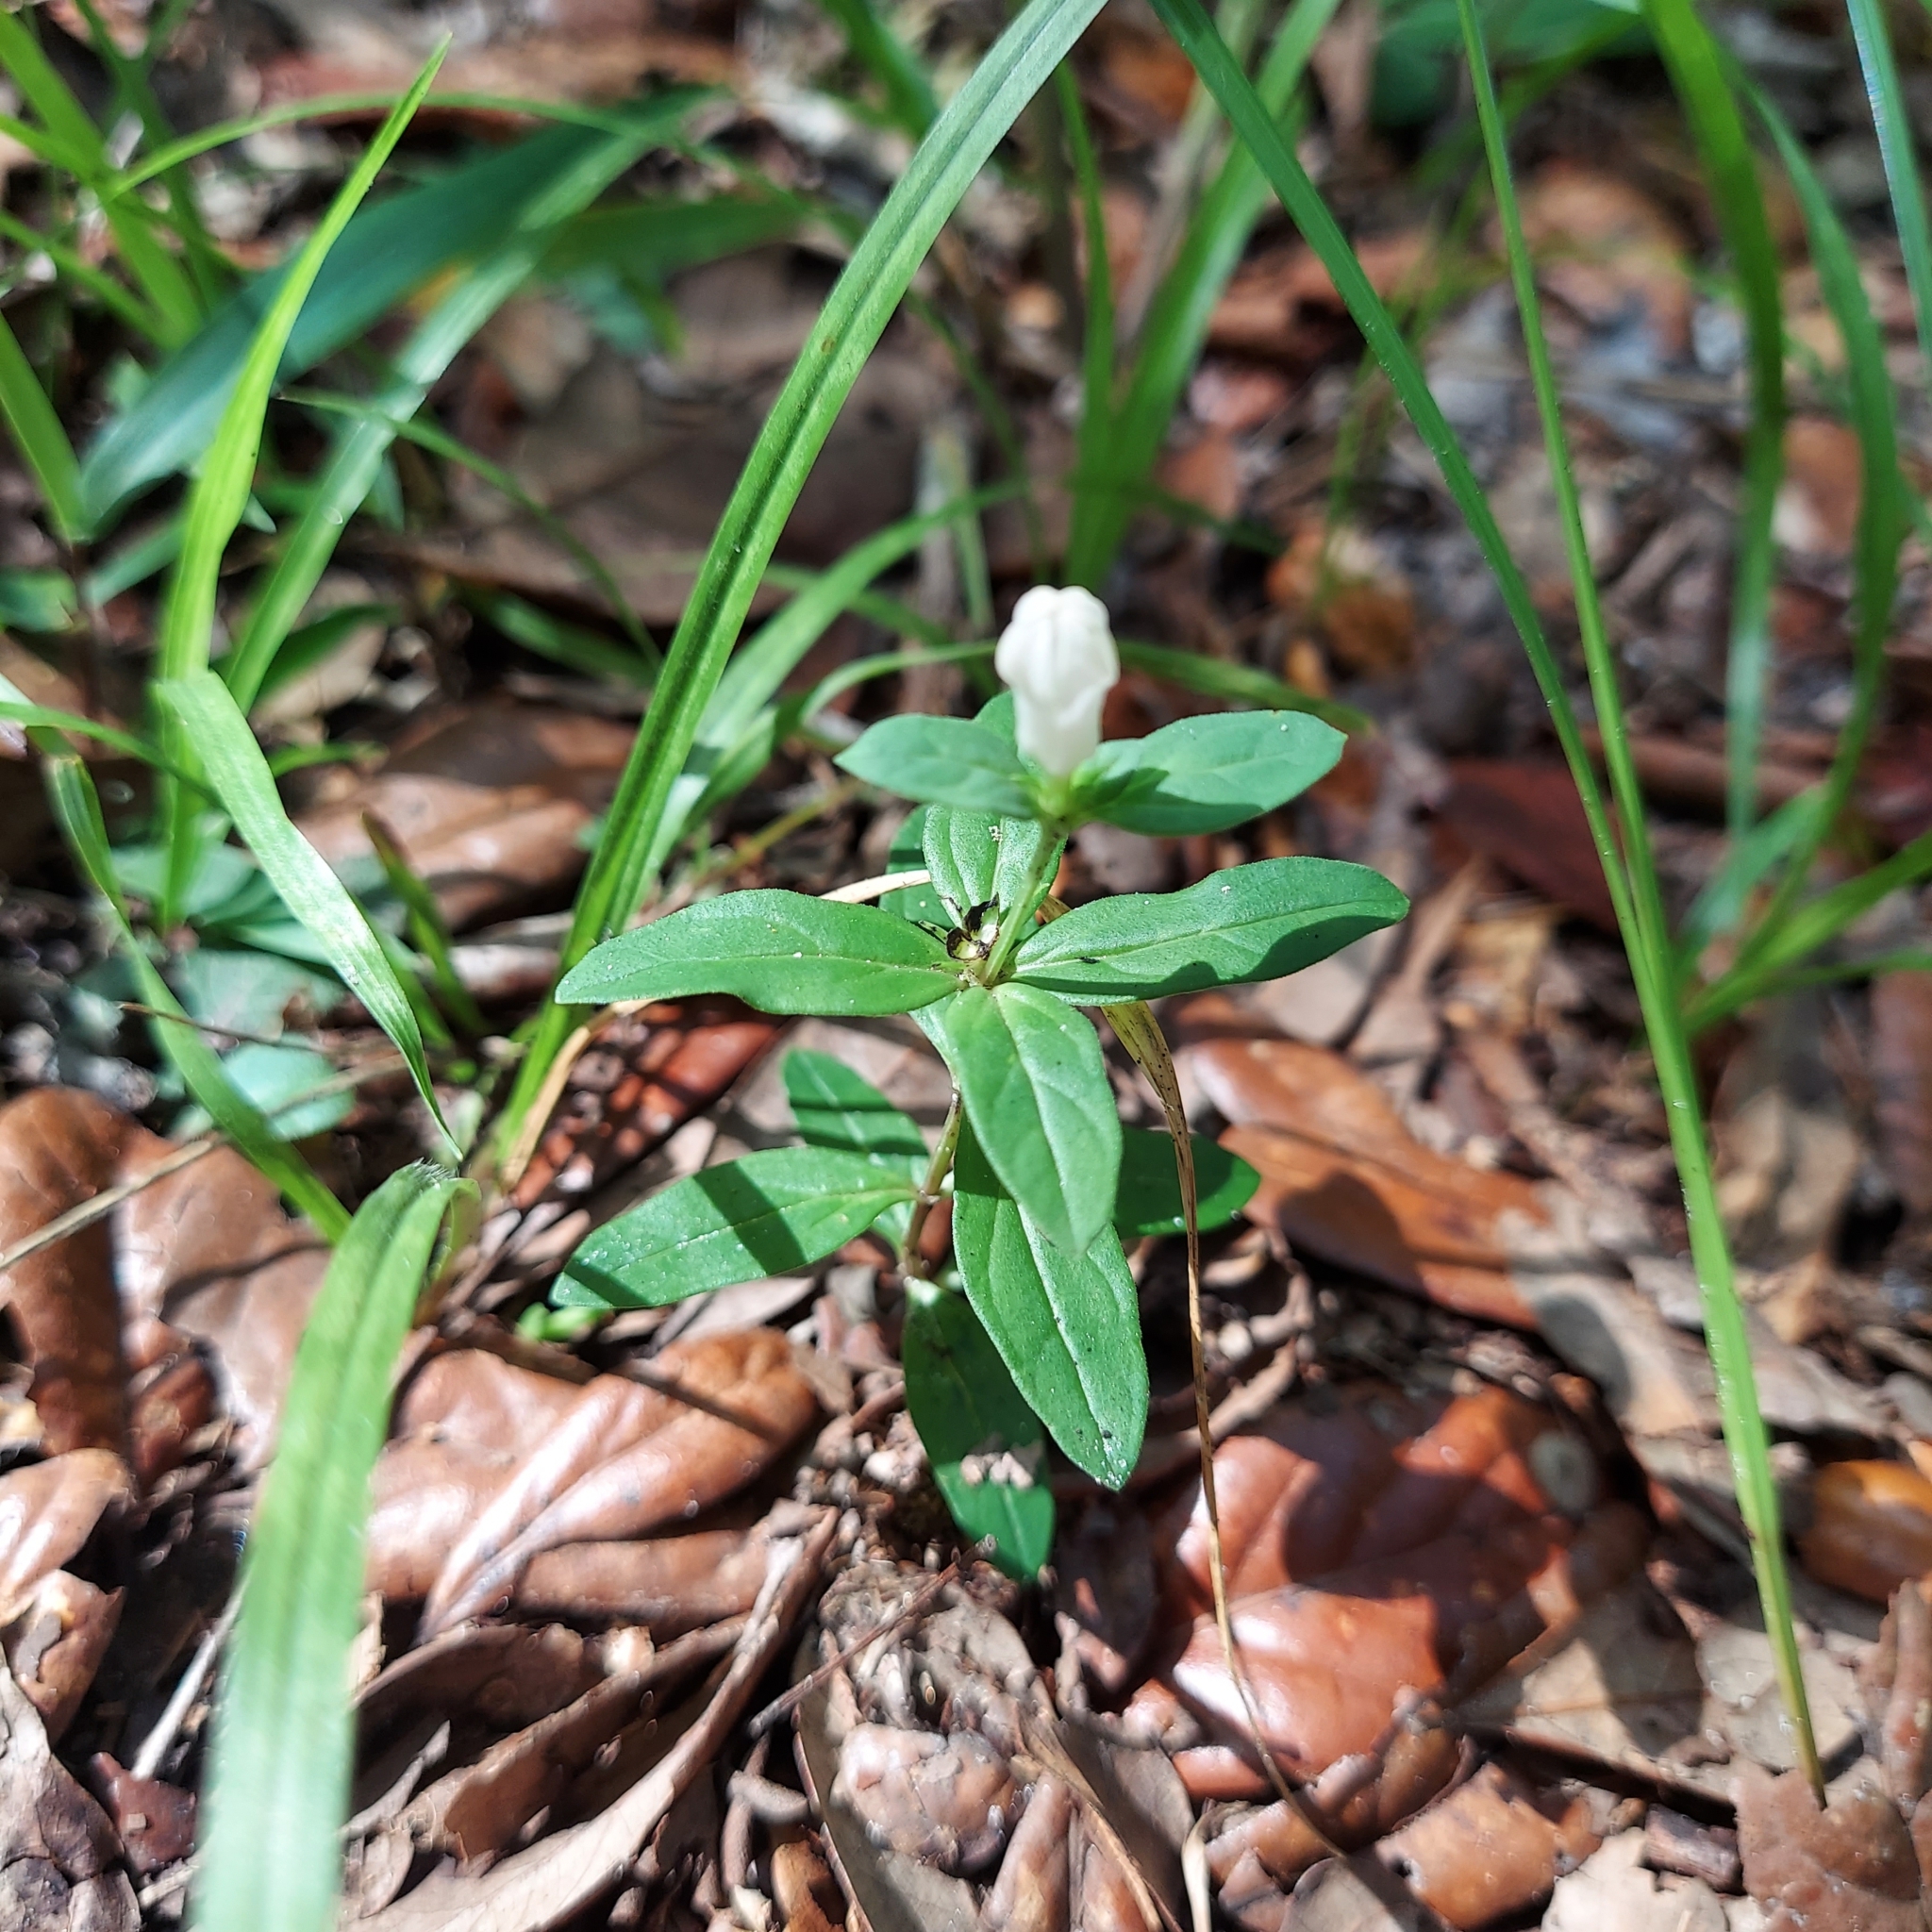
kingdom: Plantae
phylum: Tracheophyta
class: Magnoliopsida
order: Gentianales
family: Loganiaceae
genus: Spigelia
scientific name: Spigelia loganioides
